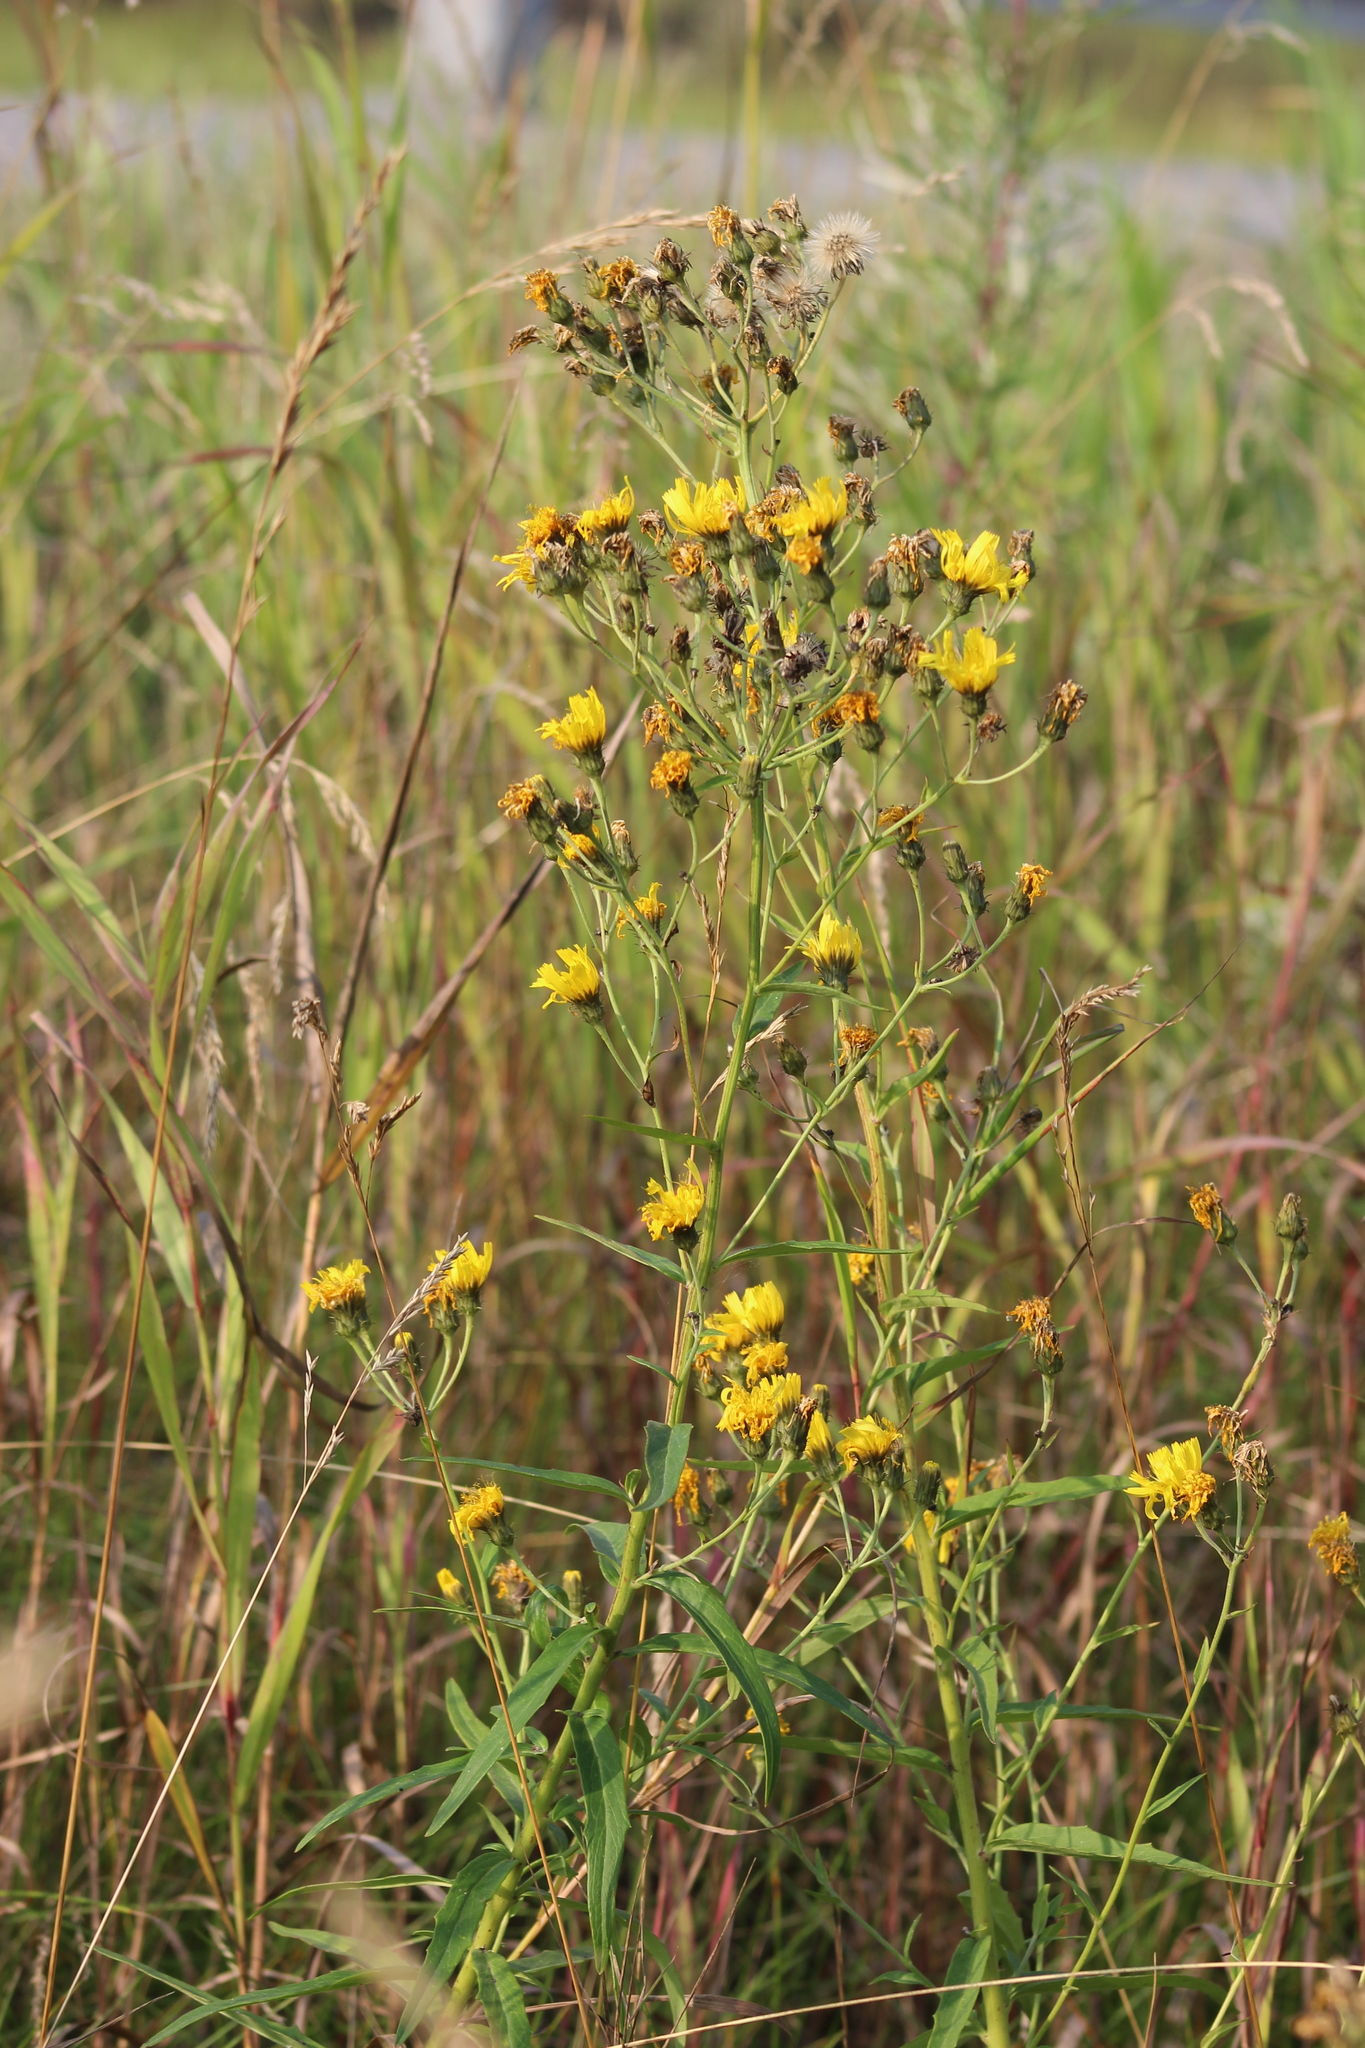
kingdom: Plantae
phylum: Tracheophyta
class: Magnoliopsida
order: Asterales
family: Asteraceae
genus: Hieracium
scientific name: Hieracium umbellatum
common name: Northern hawkweed
